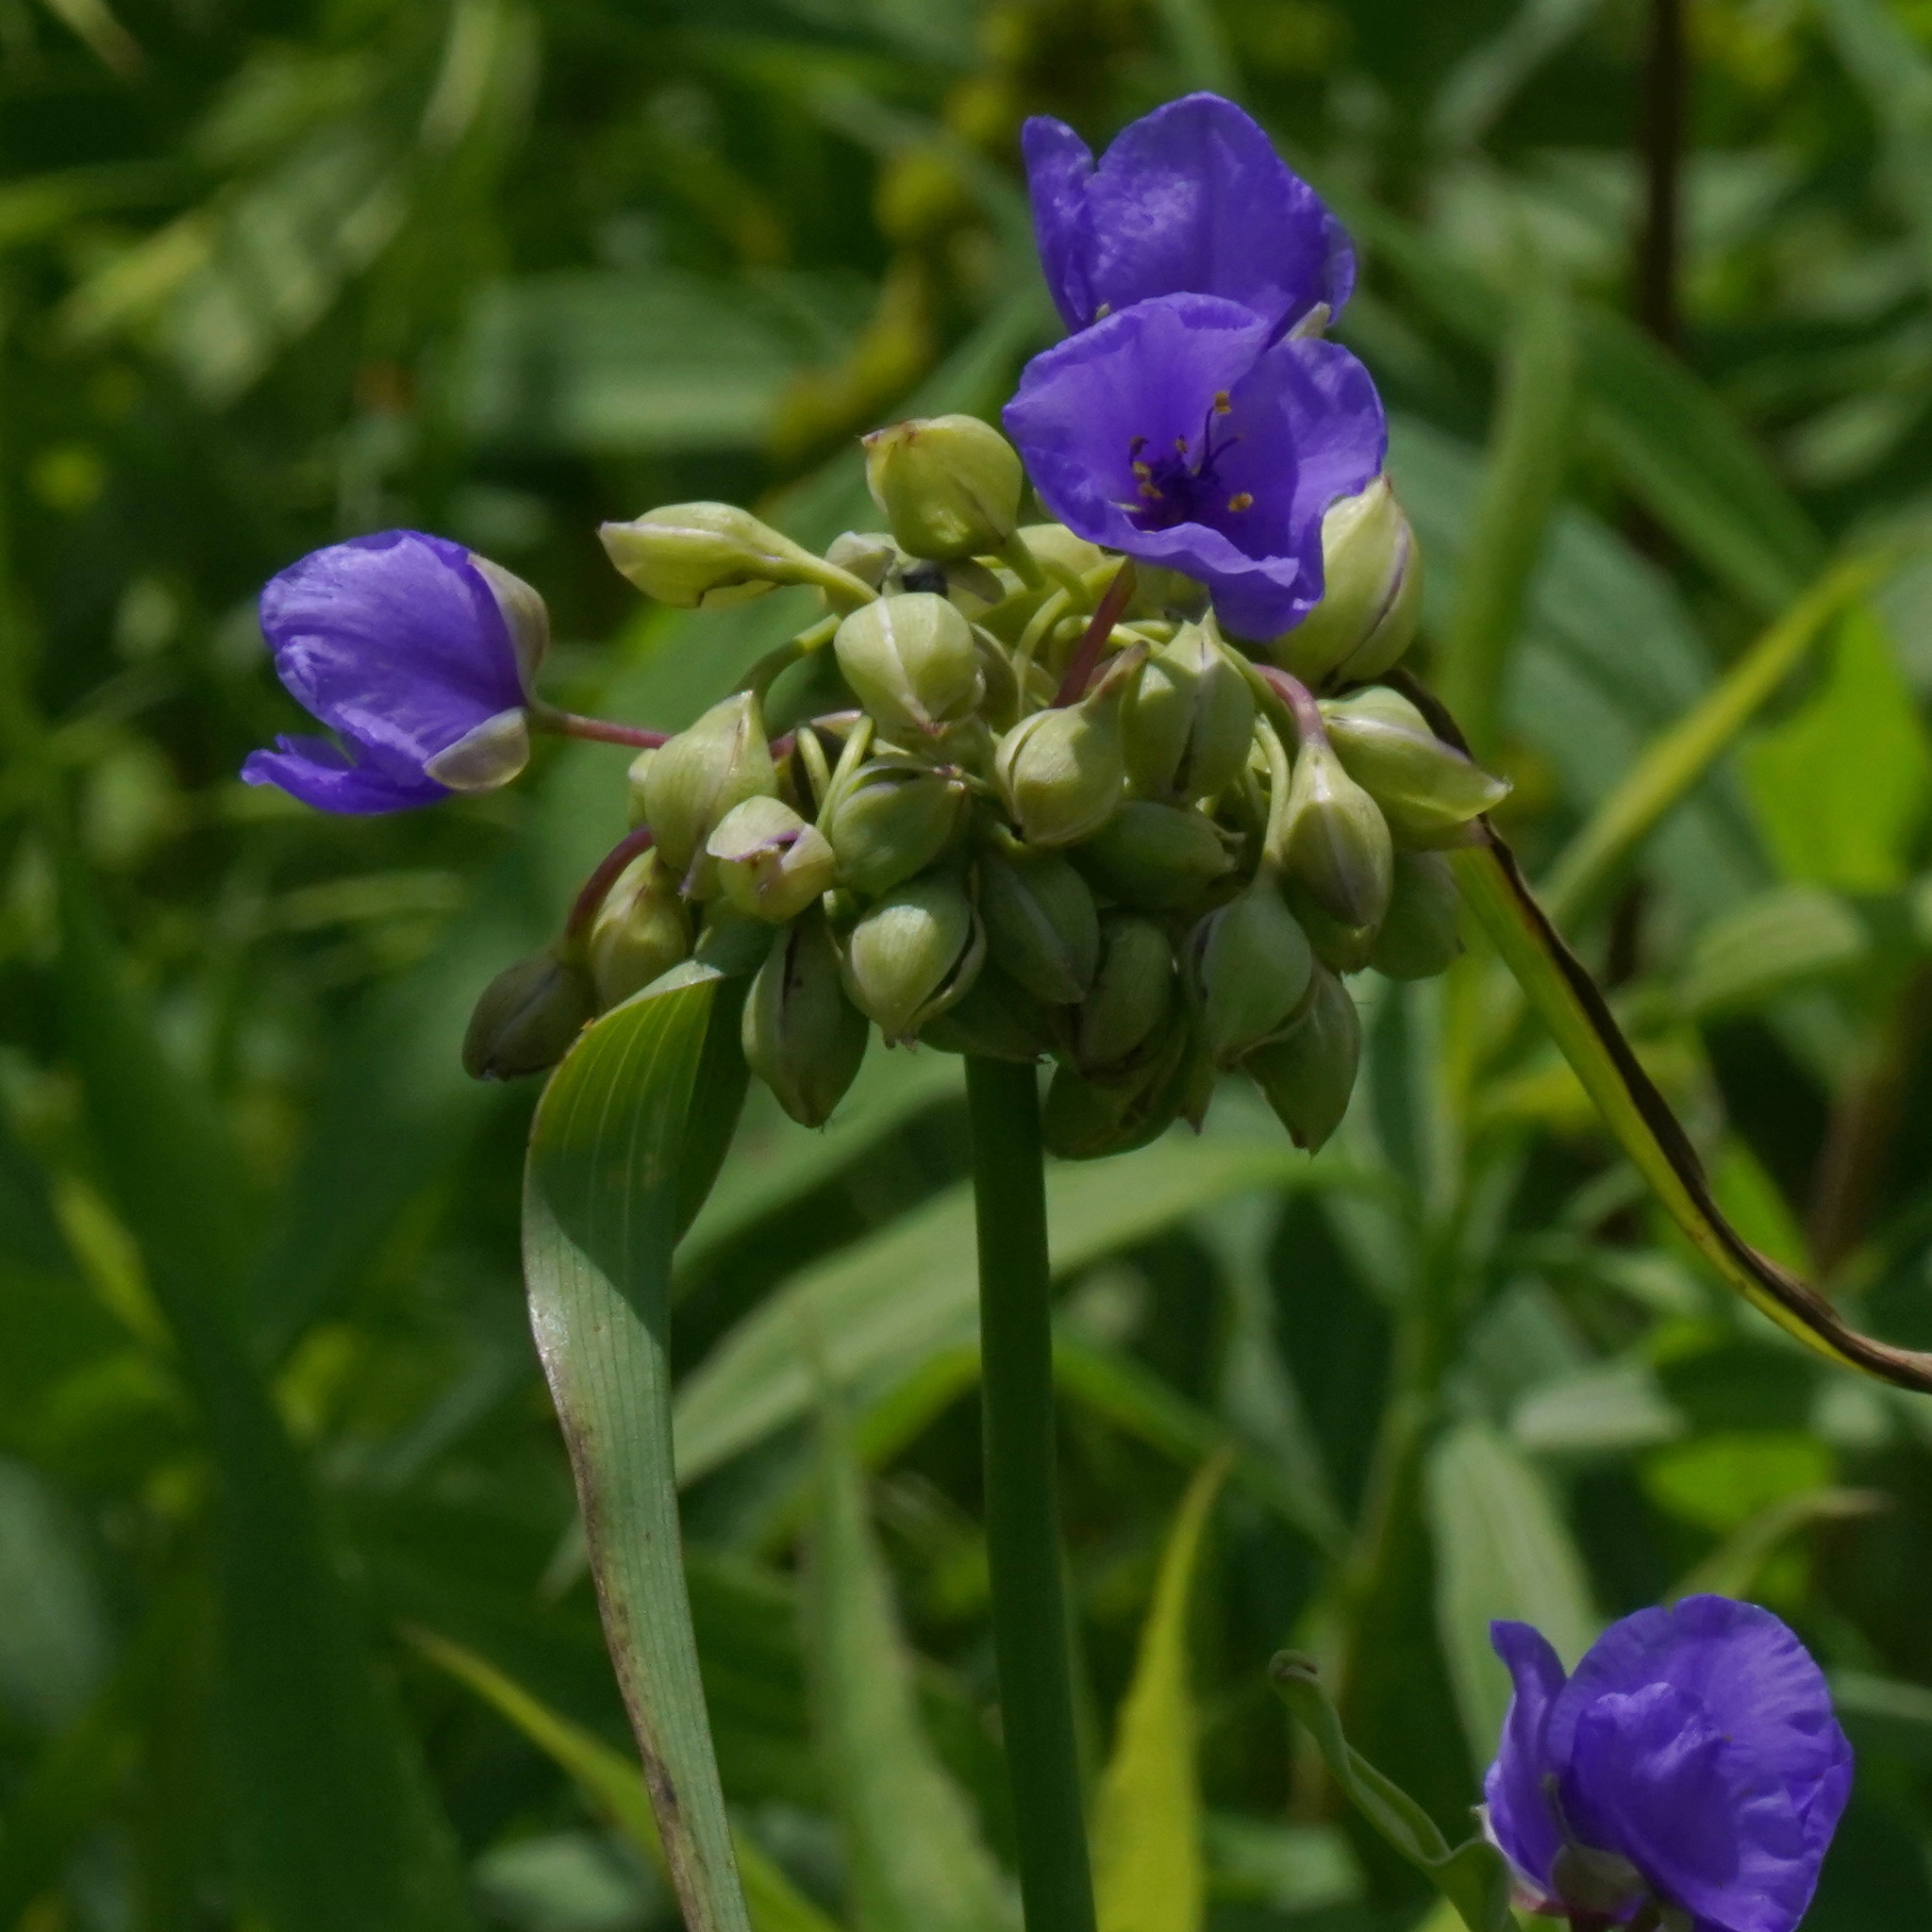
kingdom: Plantae
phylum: Tracheophyta
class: Liliopsida
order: Commelinales
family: Commelinaceae
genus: Tradescantia
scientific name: Tradescantia ohiensis
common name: Ohio spiderwort
